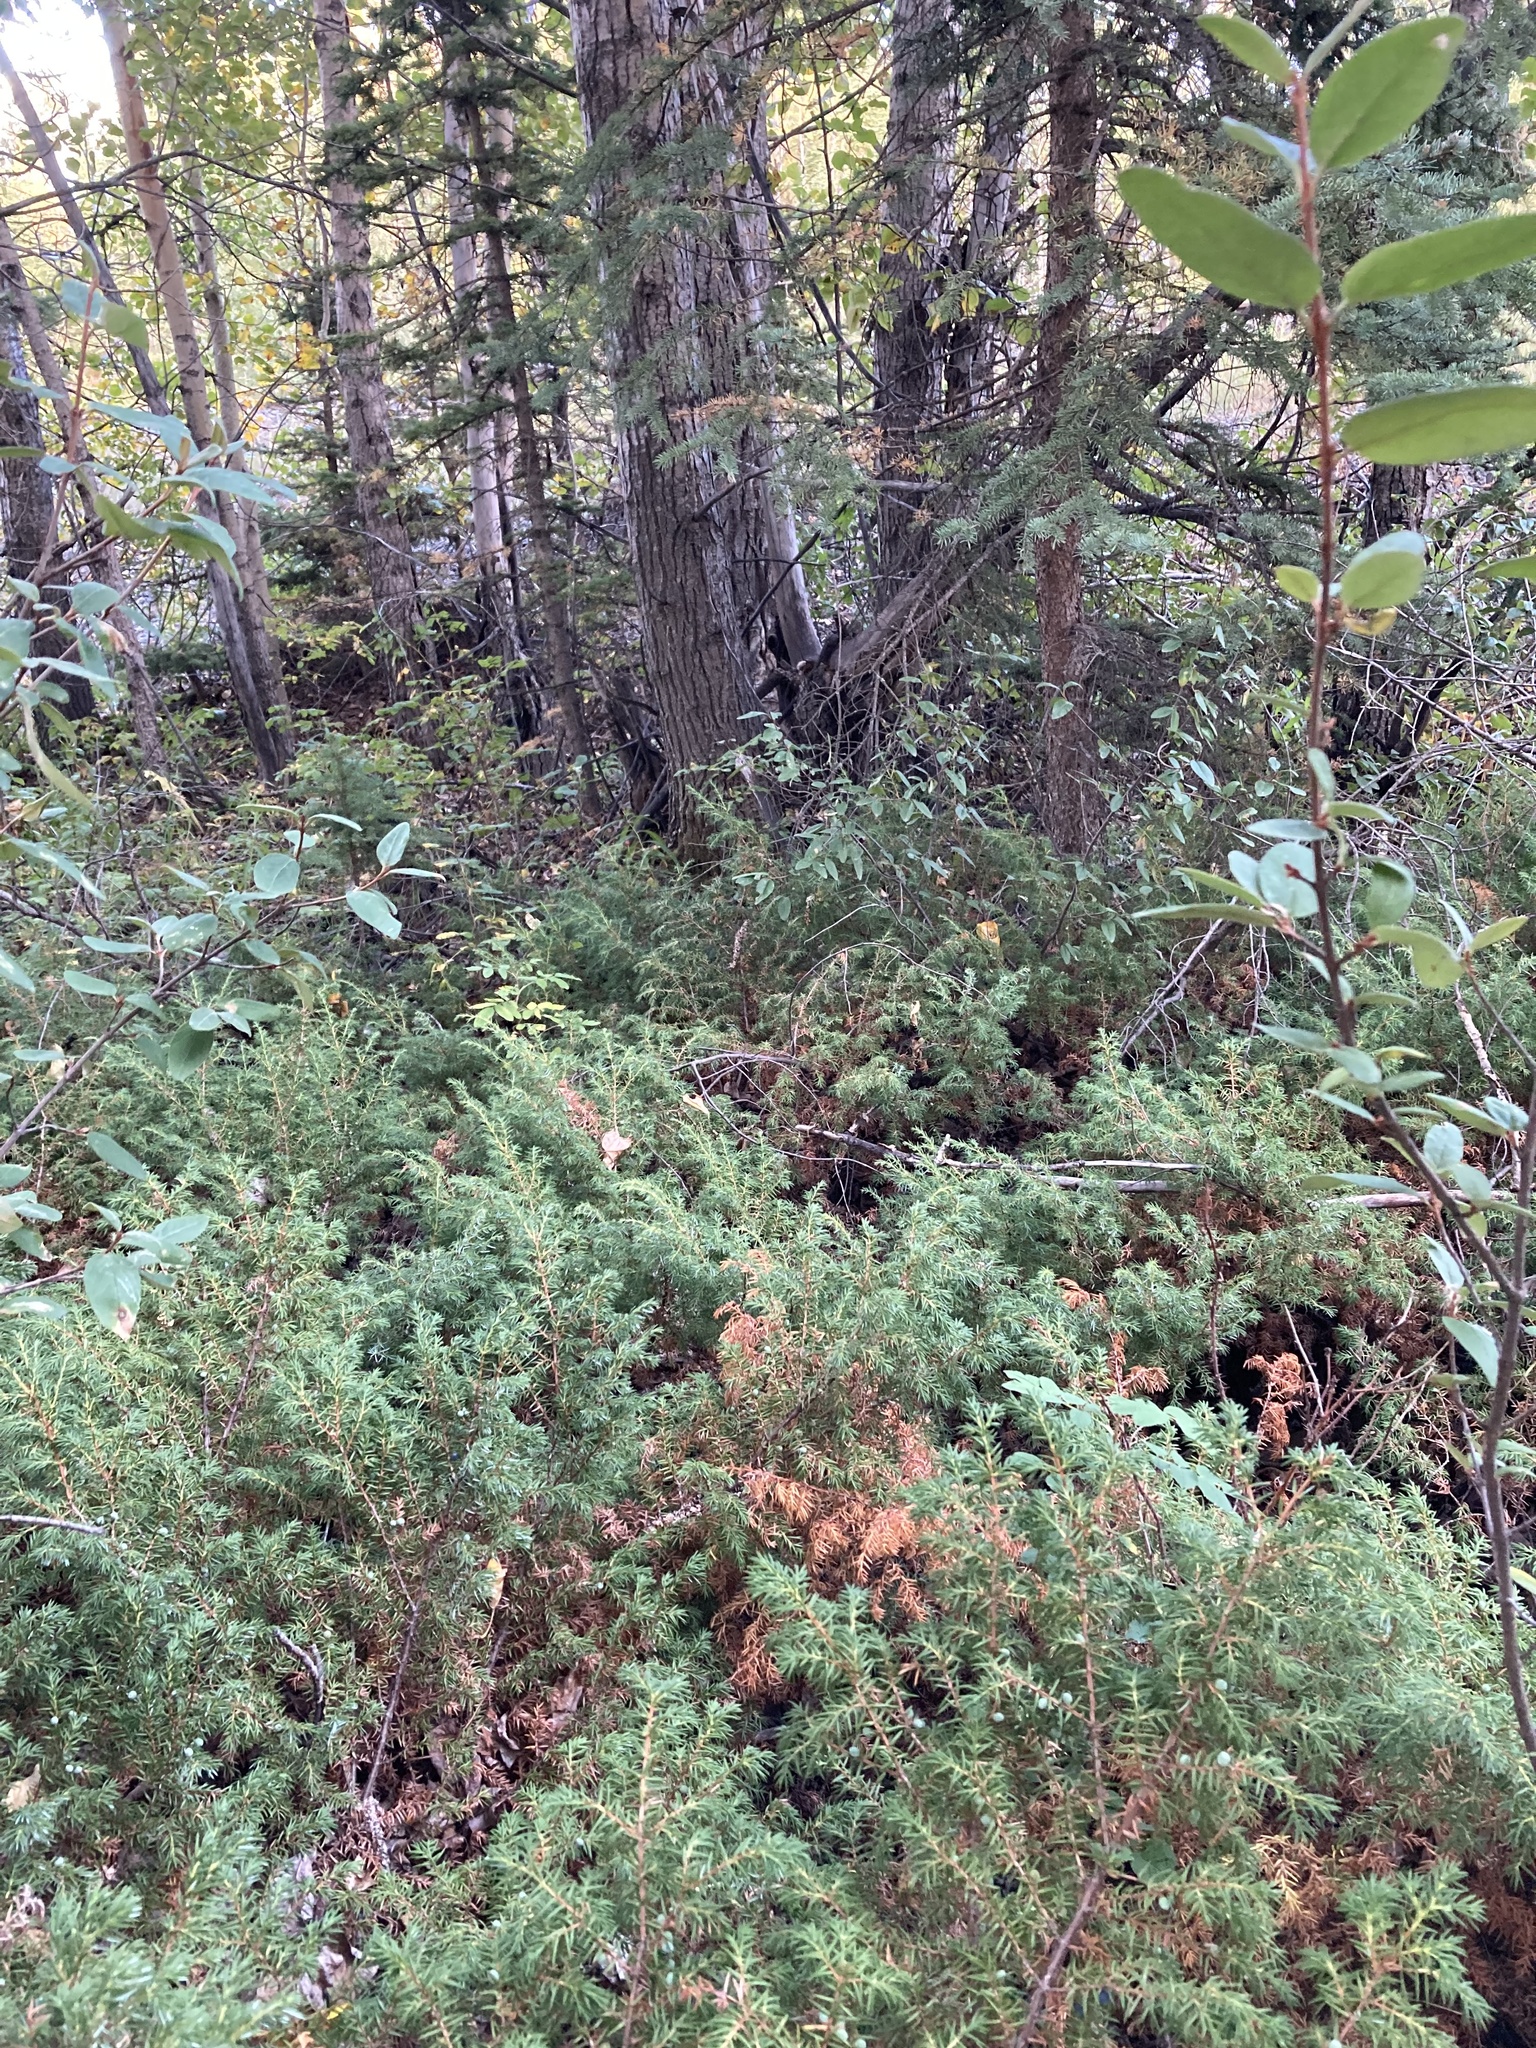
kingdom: Plantae
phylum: Tracheophyta
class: Pinopsida
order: Pinales
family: Cupressaceae
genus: Juniperus
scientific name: Juniperus communis
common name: Common juniper
